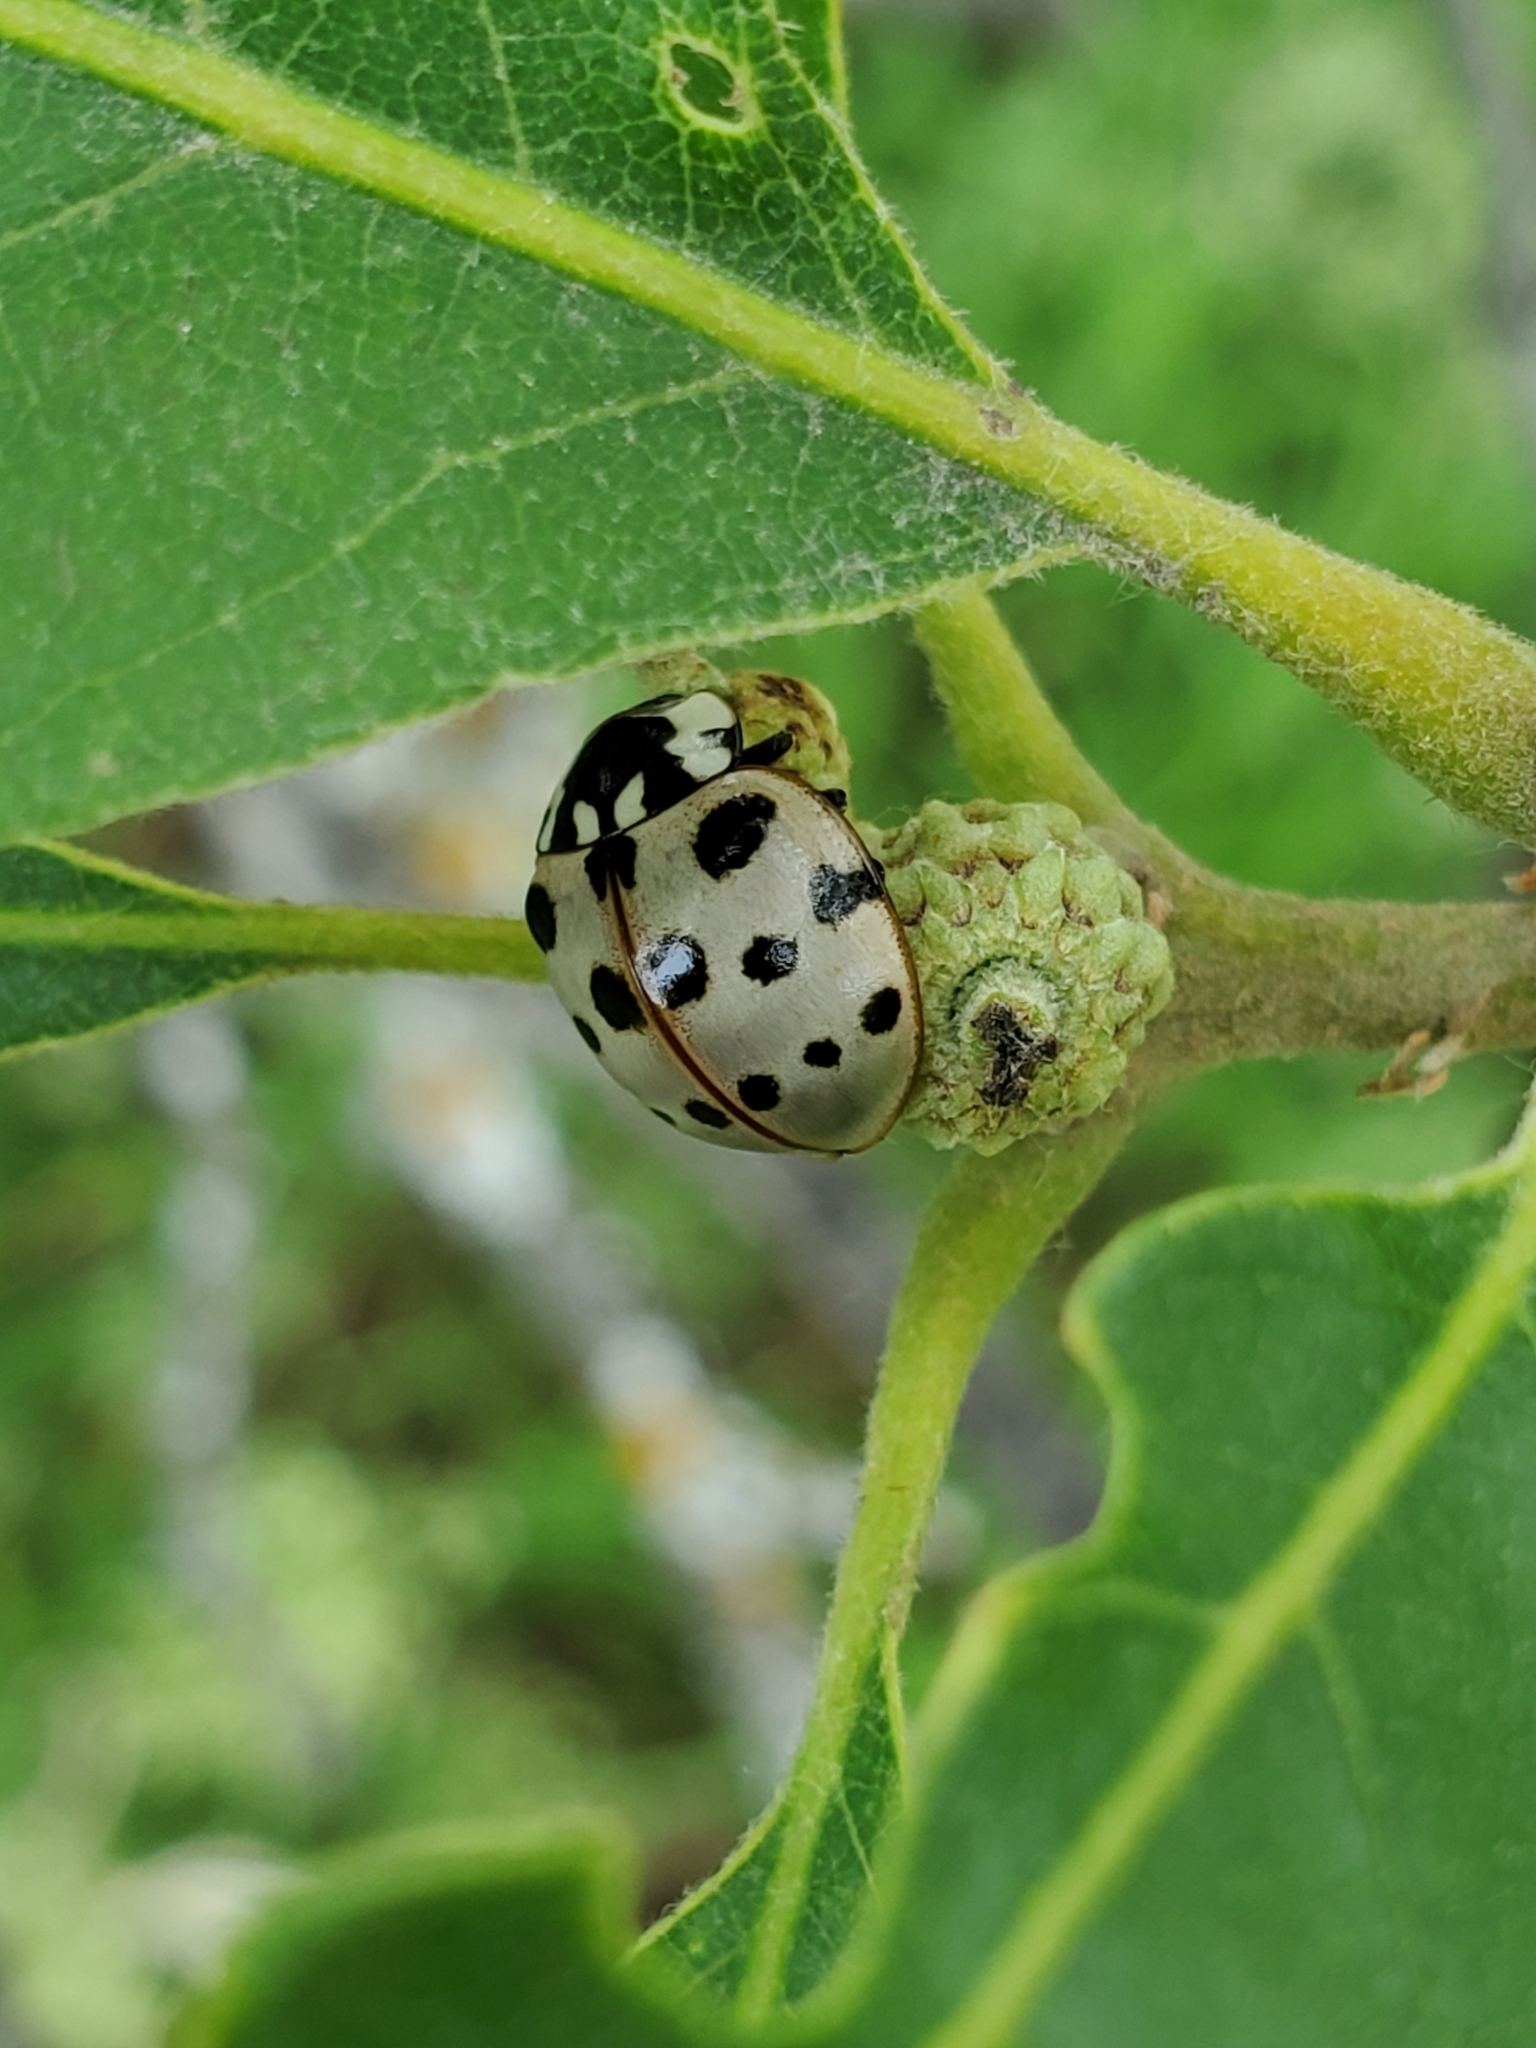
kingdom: Animalia
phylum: Arthropoda
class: Insecta
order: Coleoptera
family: Coccinellidae
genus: Anatis
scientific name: Anatis labiculata
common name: Fifteen-spotted lady beetle
